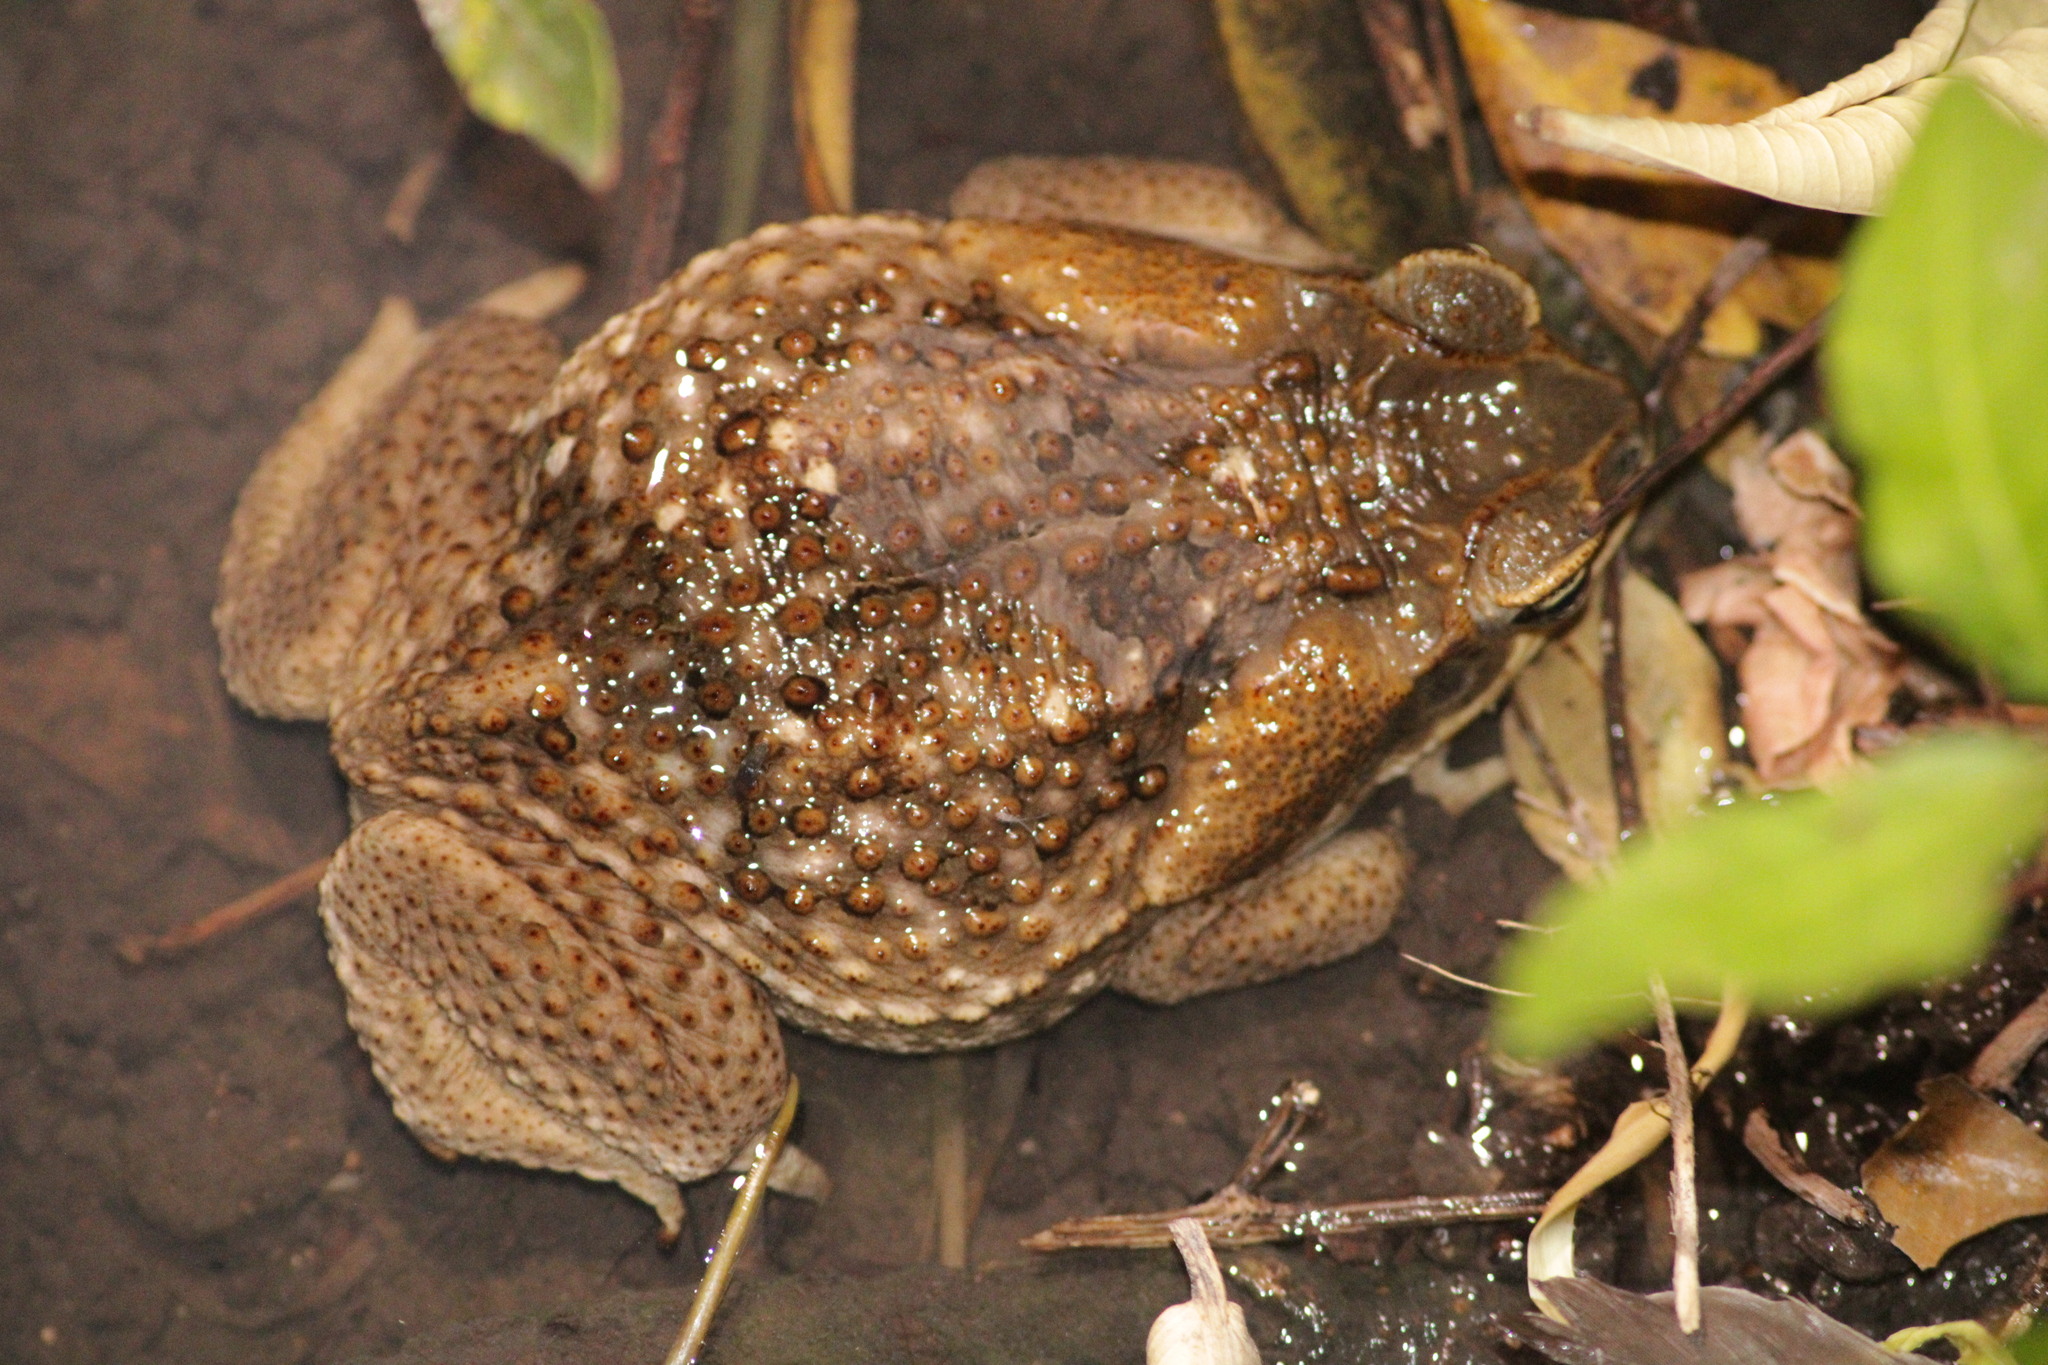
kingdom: Animalia
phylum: Chordata
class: Amphibia
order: Anura
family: Bufonidae
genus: Rhinella
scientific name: Rhinella horribilis
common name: Mesoamerican cane toad
